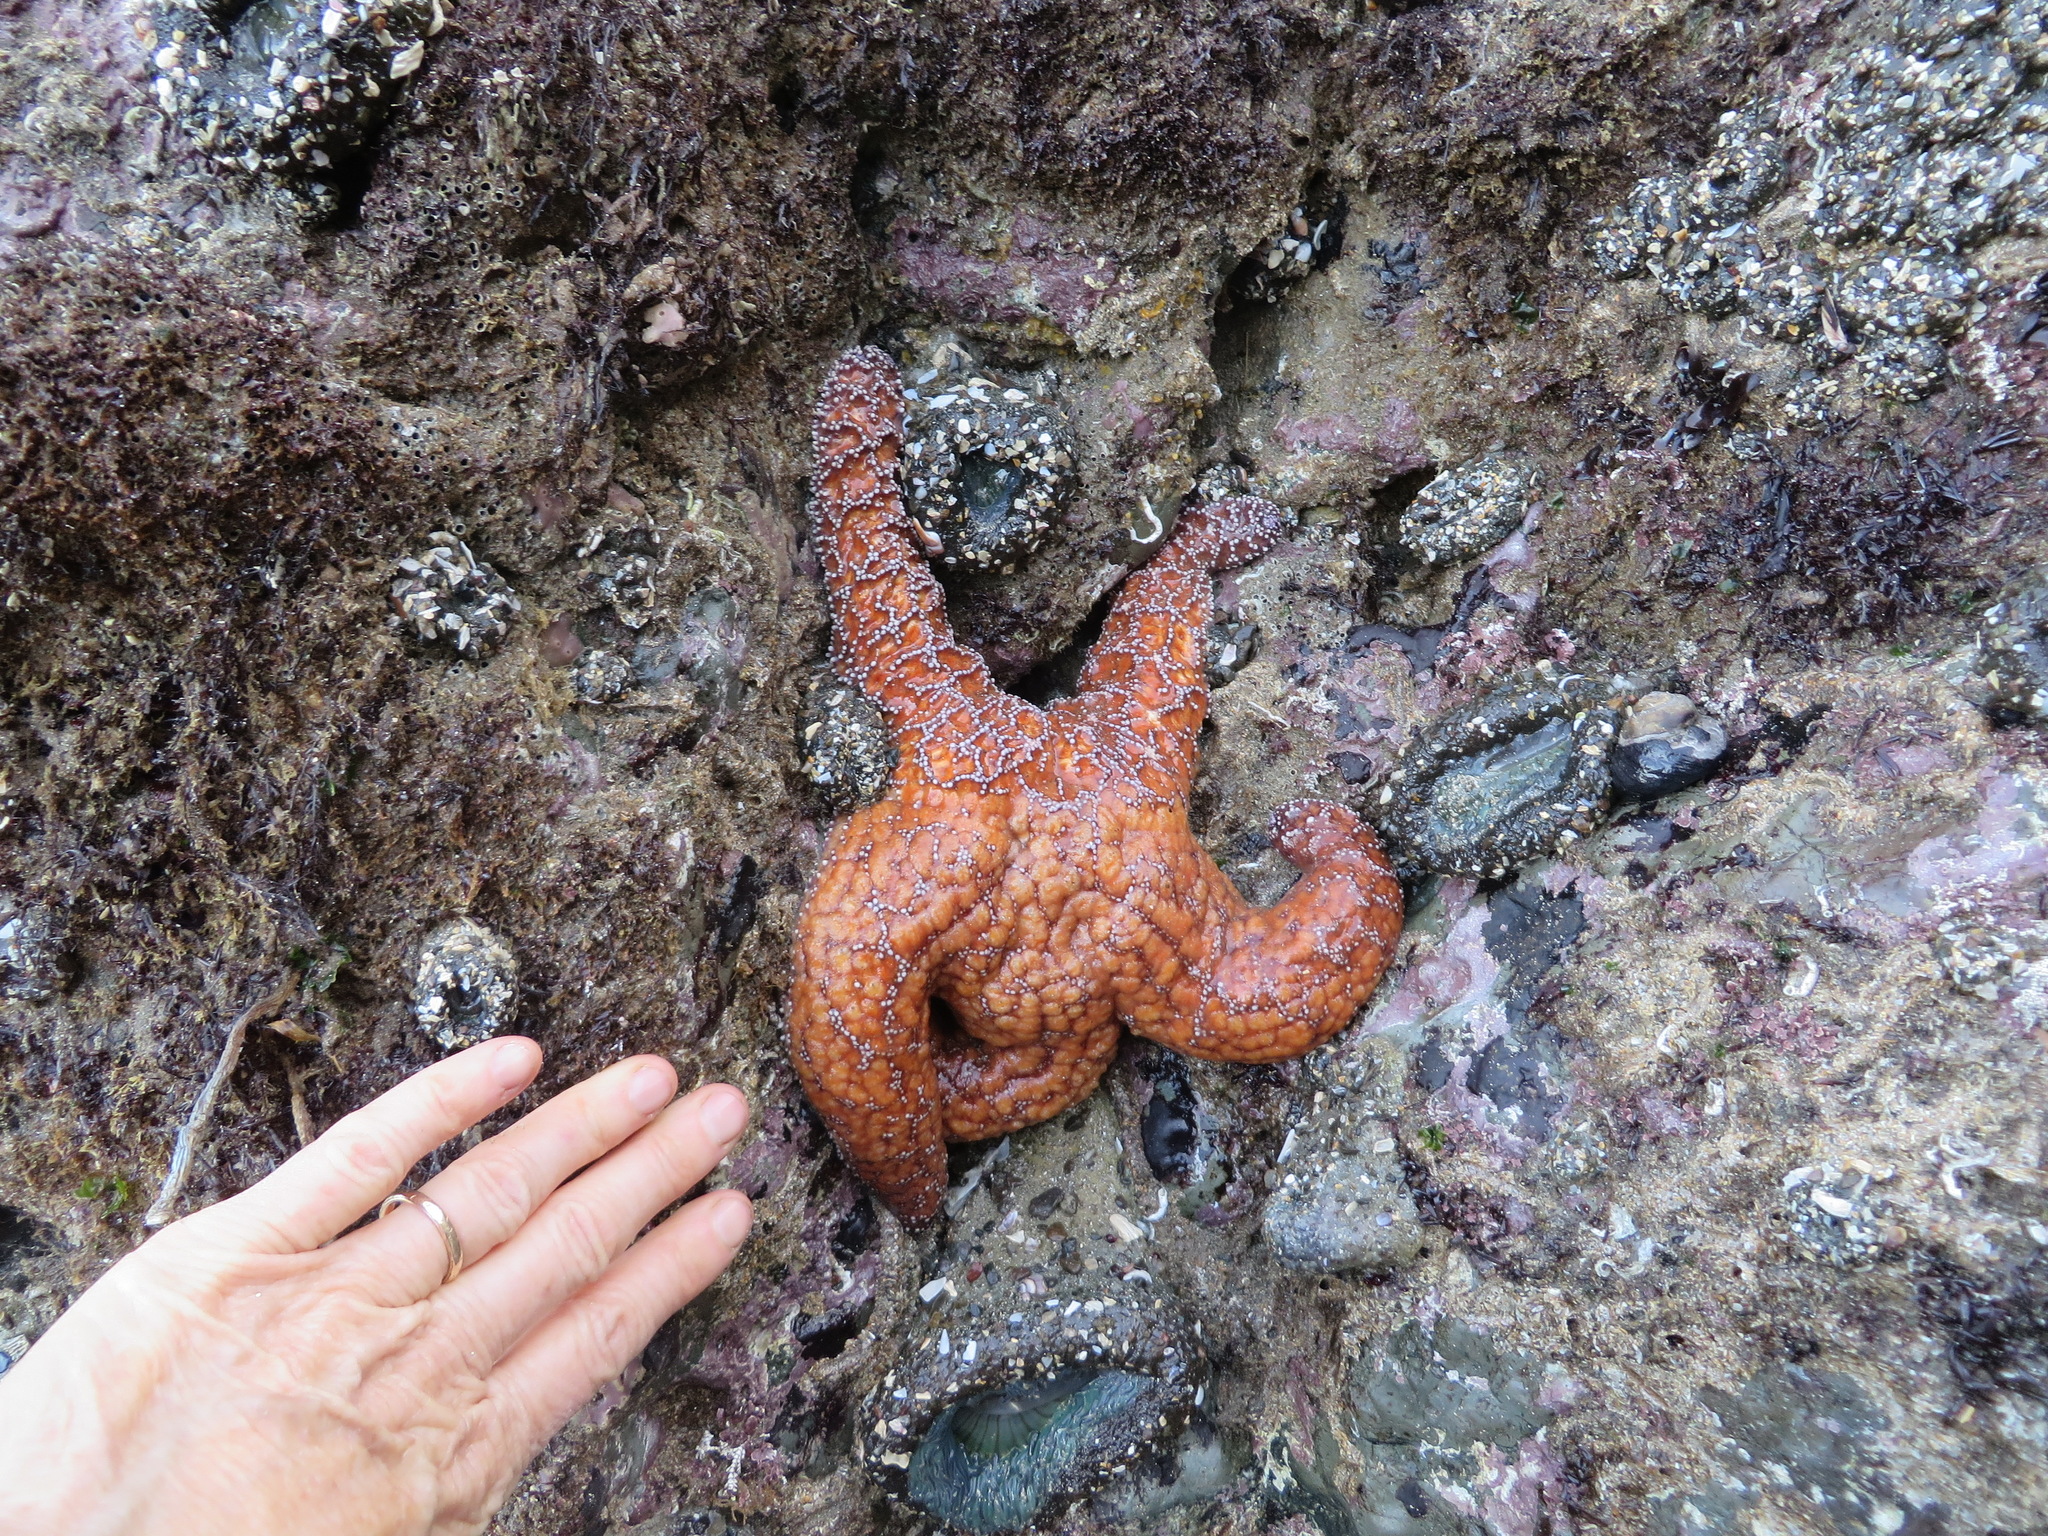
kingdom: Animalia
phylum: Echinodermata
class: Asteroidea
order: Forcipulatida
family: Asteriidae
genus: Pisaster
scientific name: Pisaster ochraceus
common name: Ochre stars
